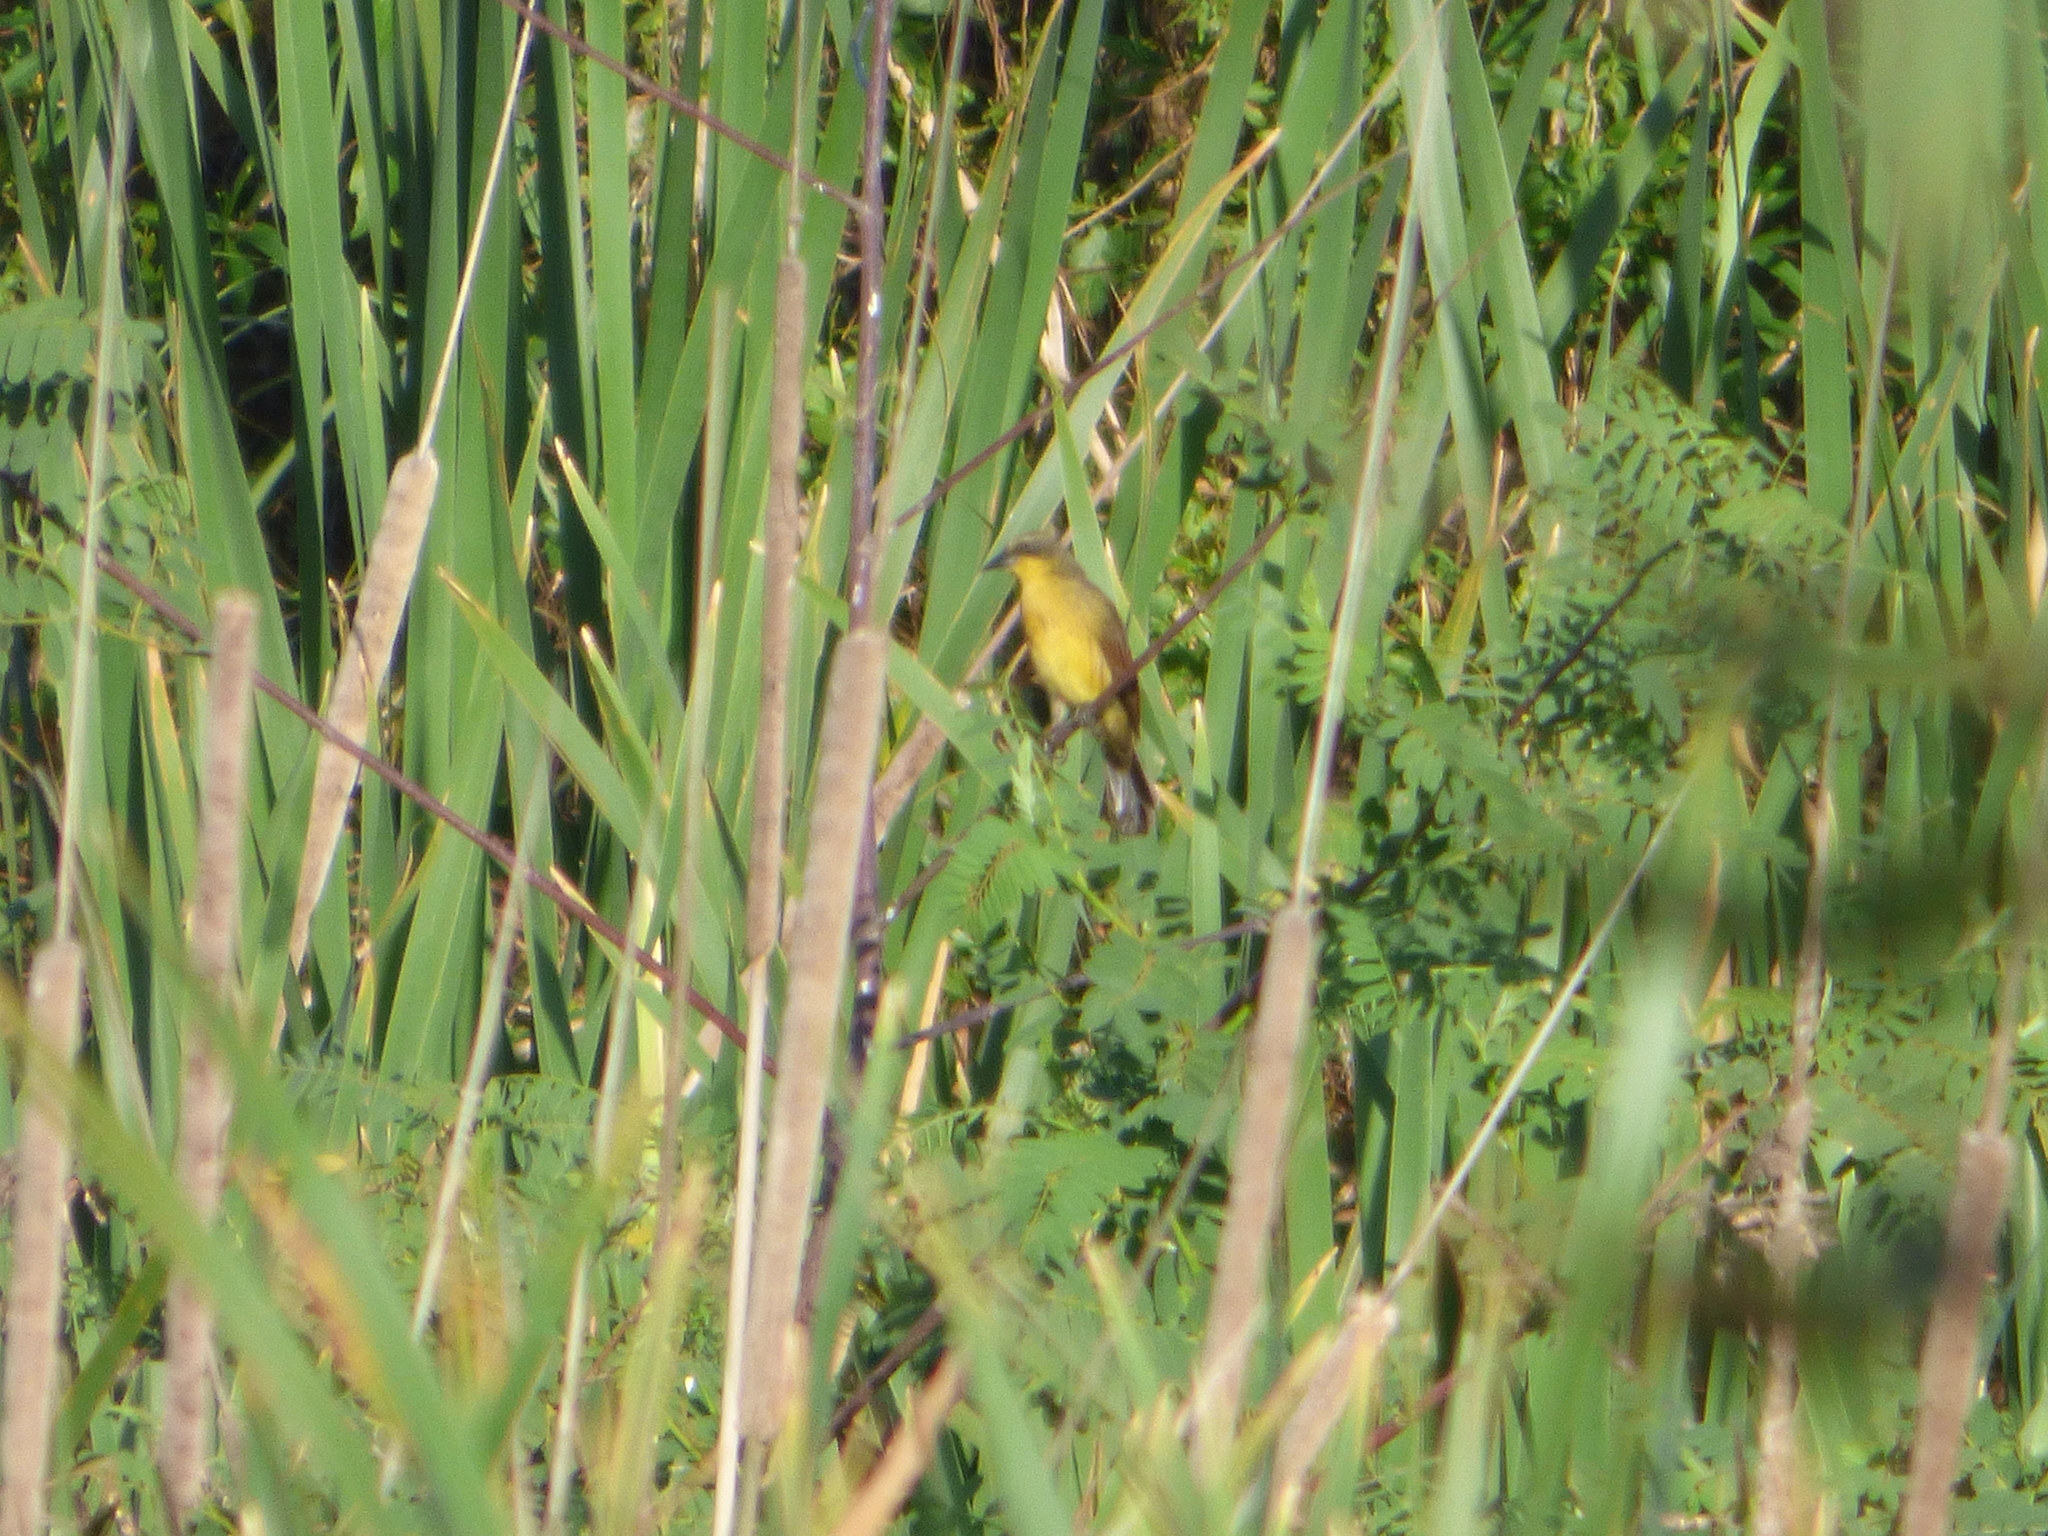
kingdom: Animalia
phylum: Chordata
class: Aves
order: Passeriformes
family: Icteridae
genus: Agelasticus
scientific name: Agelasticus cyanopus
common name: Unicolored blackbird
